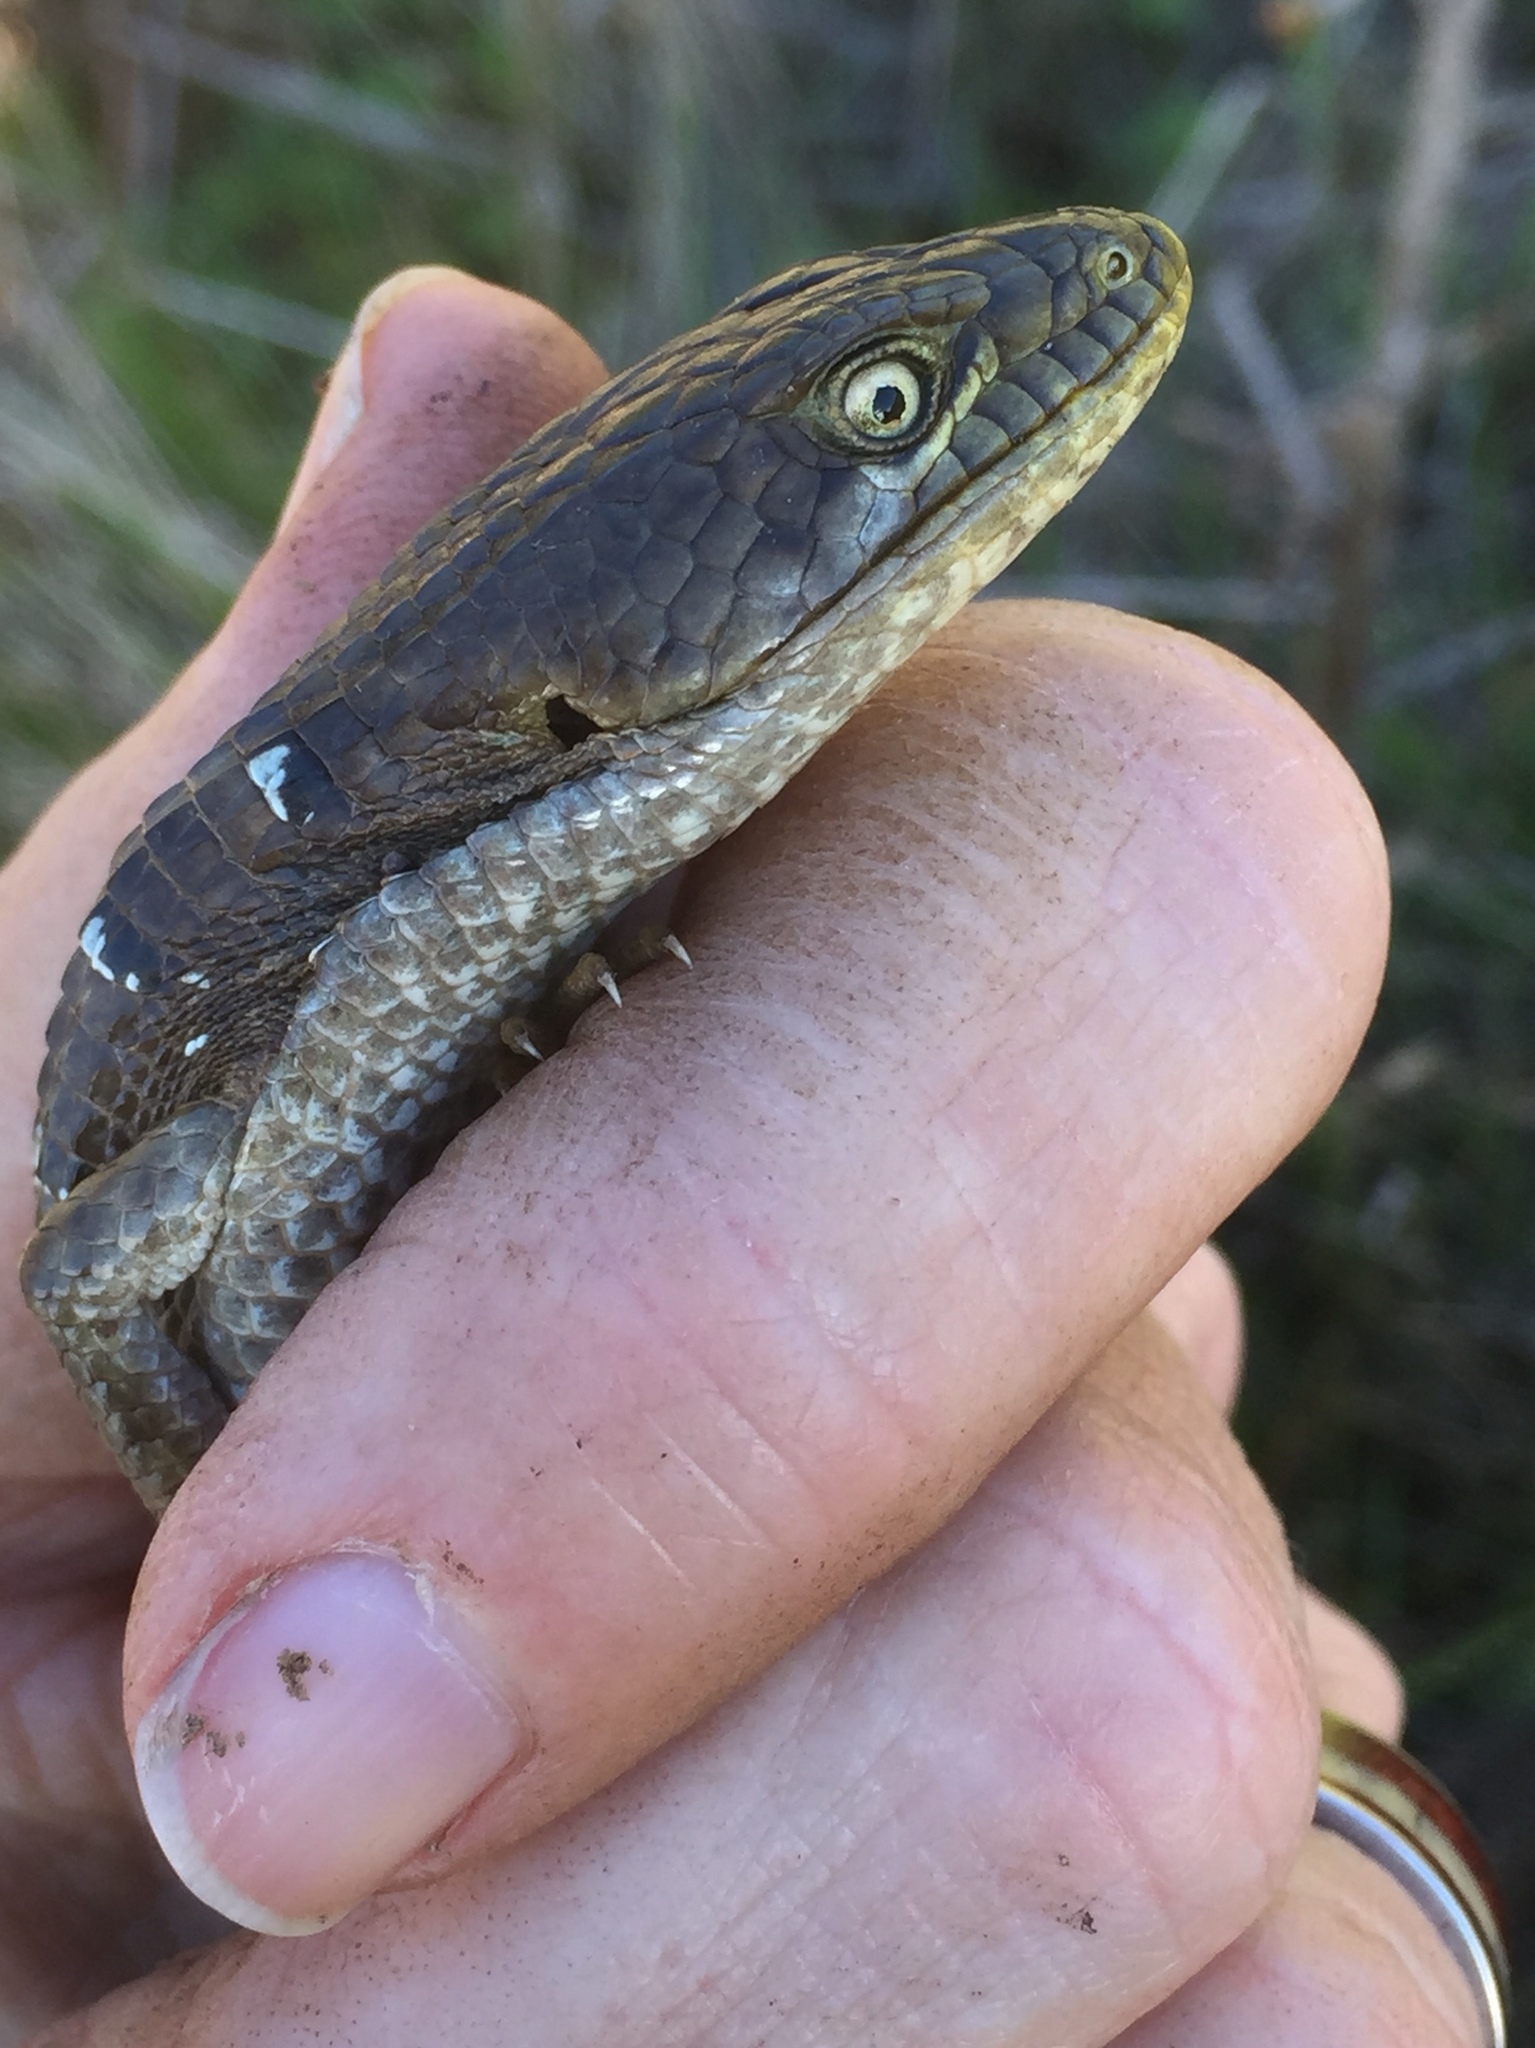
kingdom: Animalia
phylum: Chordata
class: Squamata
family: Anguidae
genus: Elgaria
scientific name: Elgaria multicarinata
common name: Southern alligator lizard
